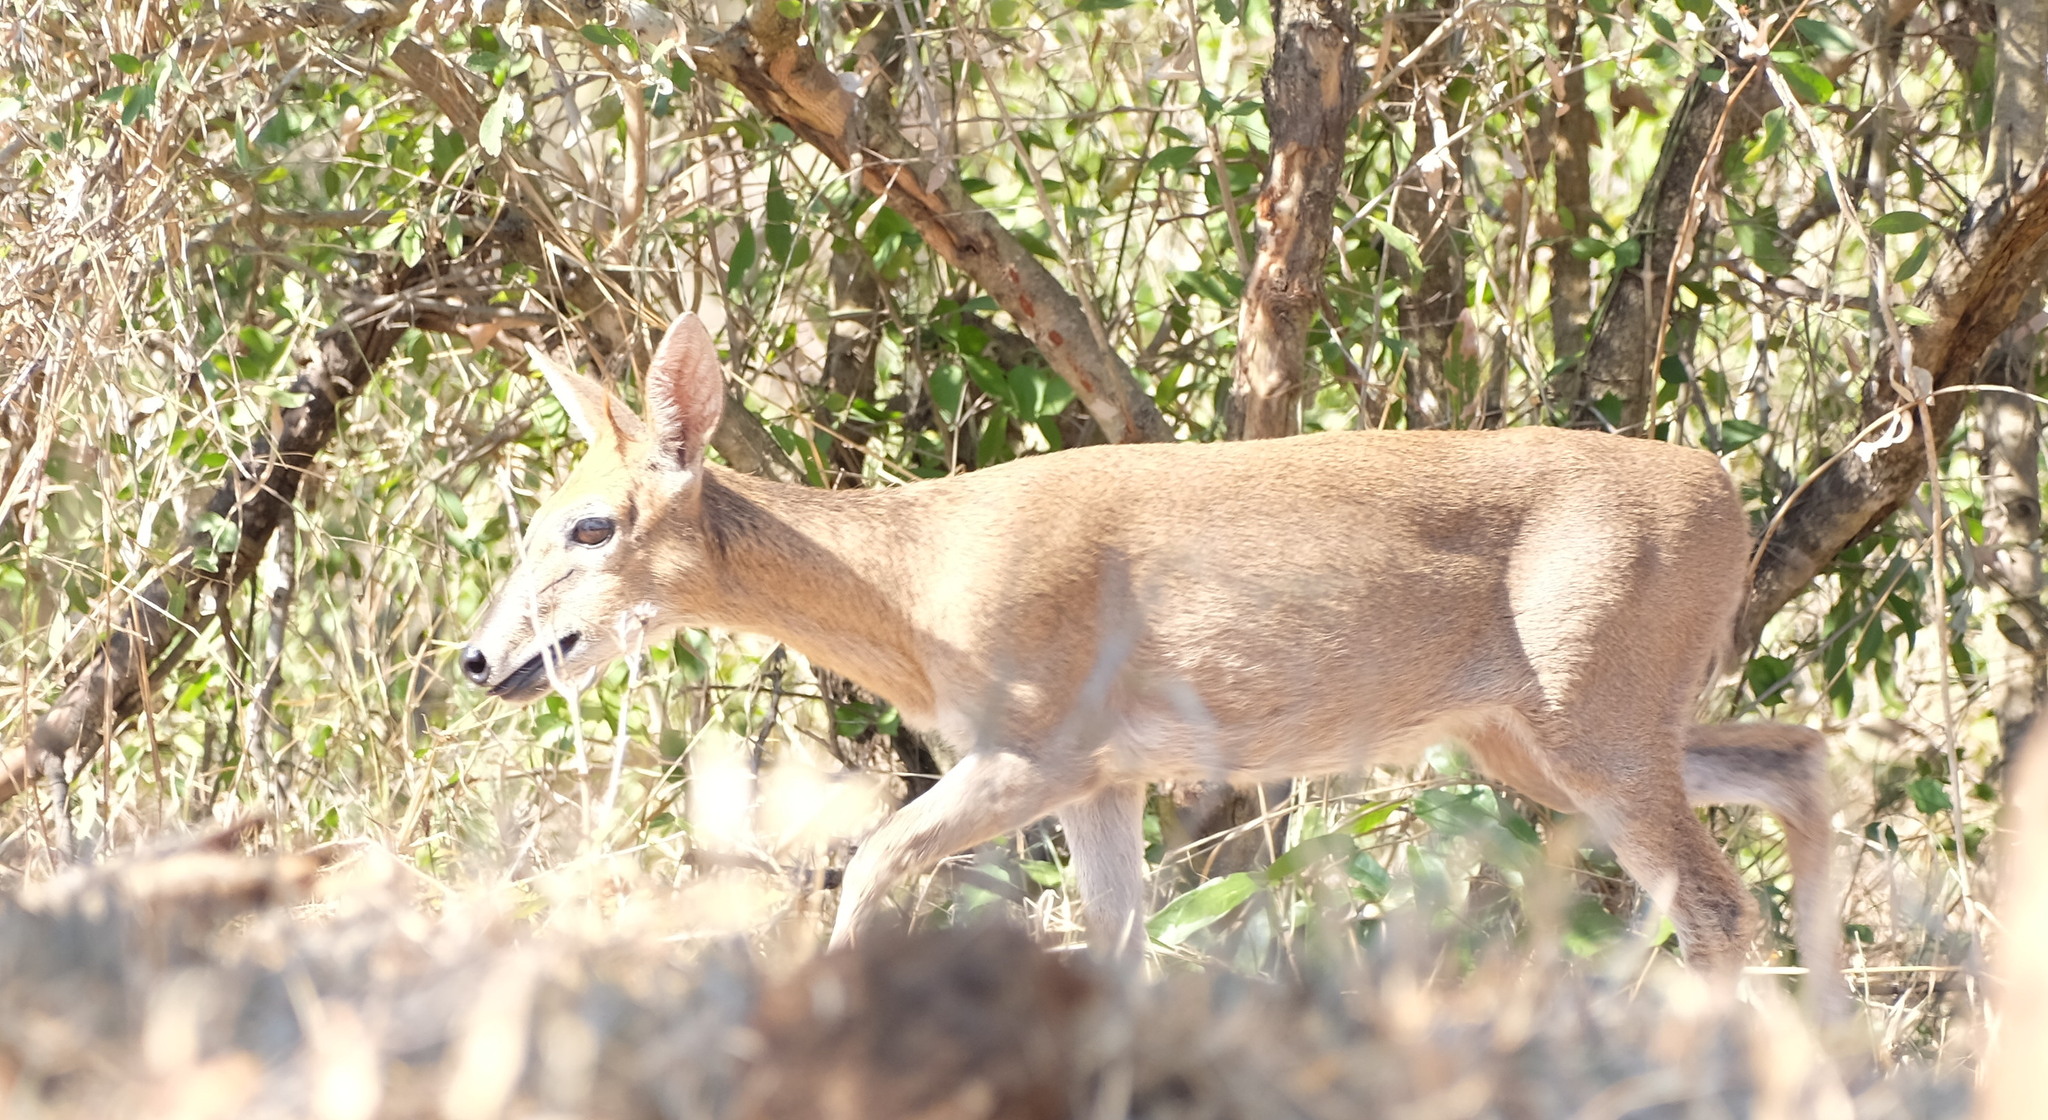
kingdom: Animalia
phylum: Chordata
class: Mammalia
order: Artiodactyla
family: Bovidae
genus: Sylvicapra
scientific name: Sylvicapra grimmia
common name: Bush duiker
